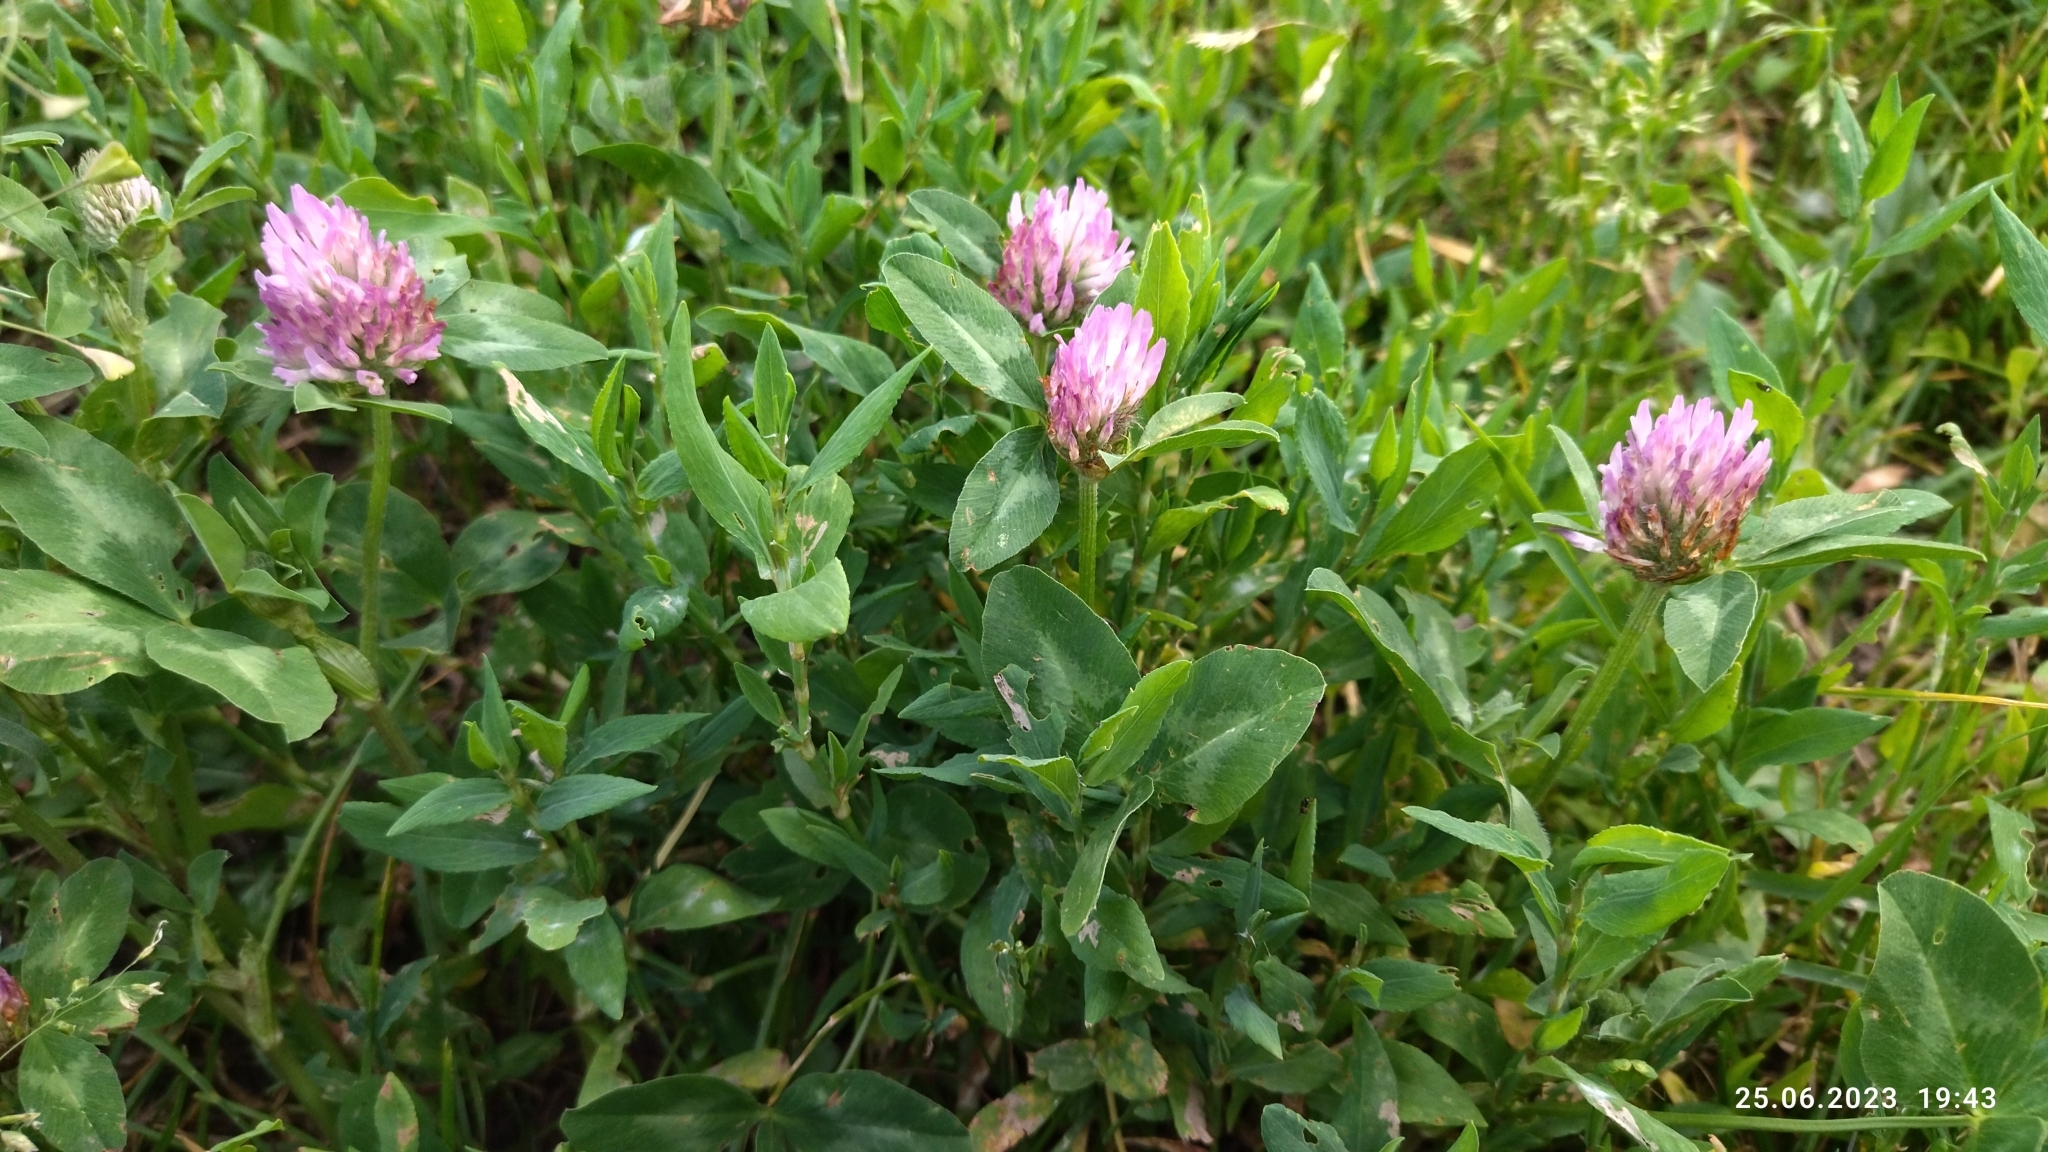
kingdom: Plantae
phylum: Tracheophyta
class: Magnoliopsida
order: Fabales
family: Fabaceae
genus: Trifolium
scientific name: Trifolium pratense
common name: Red clover
